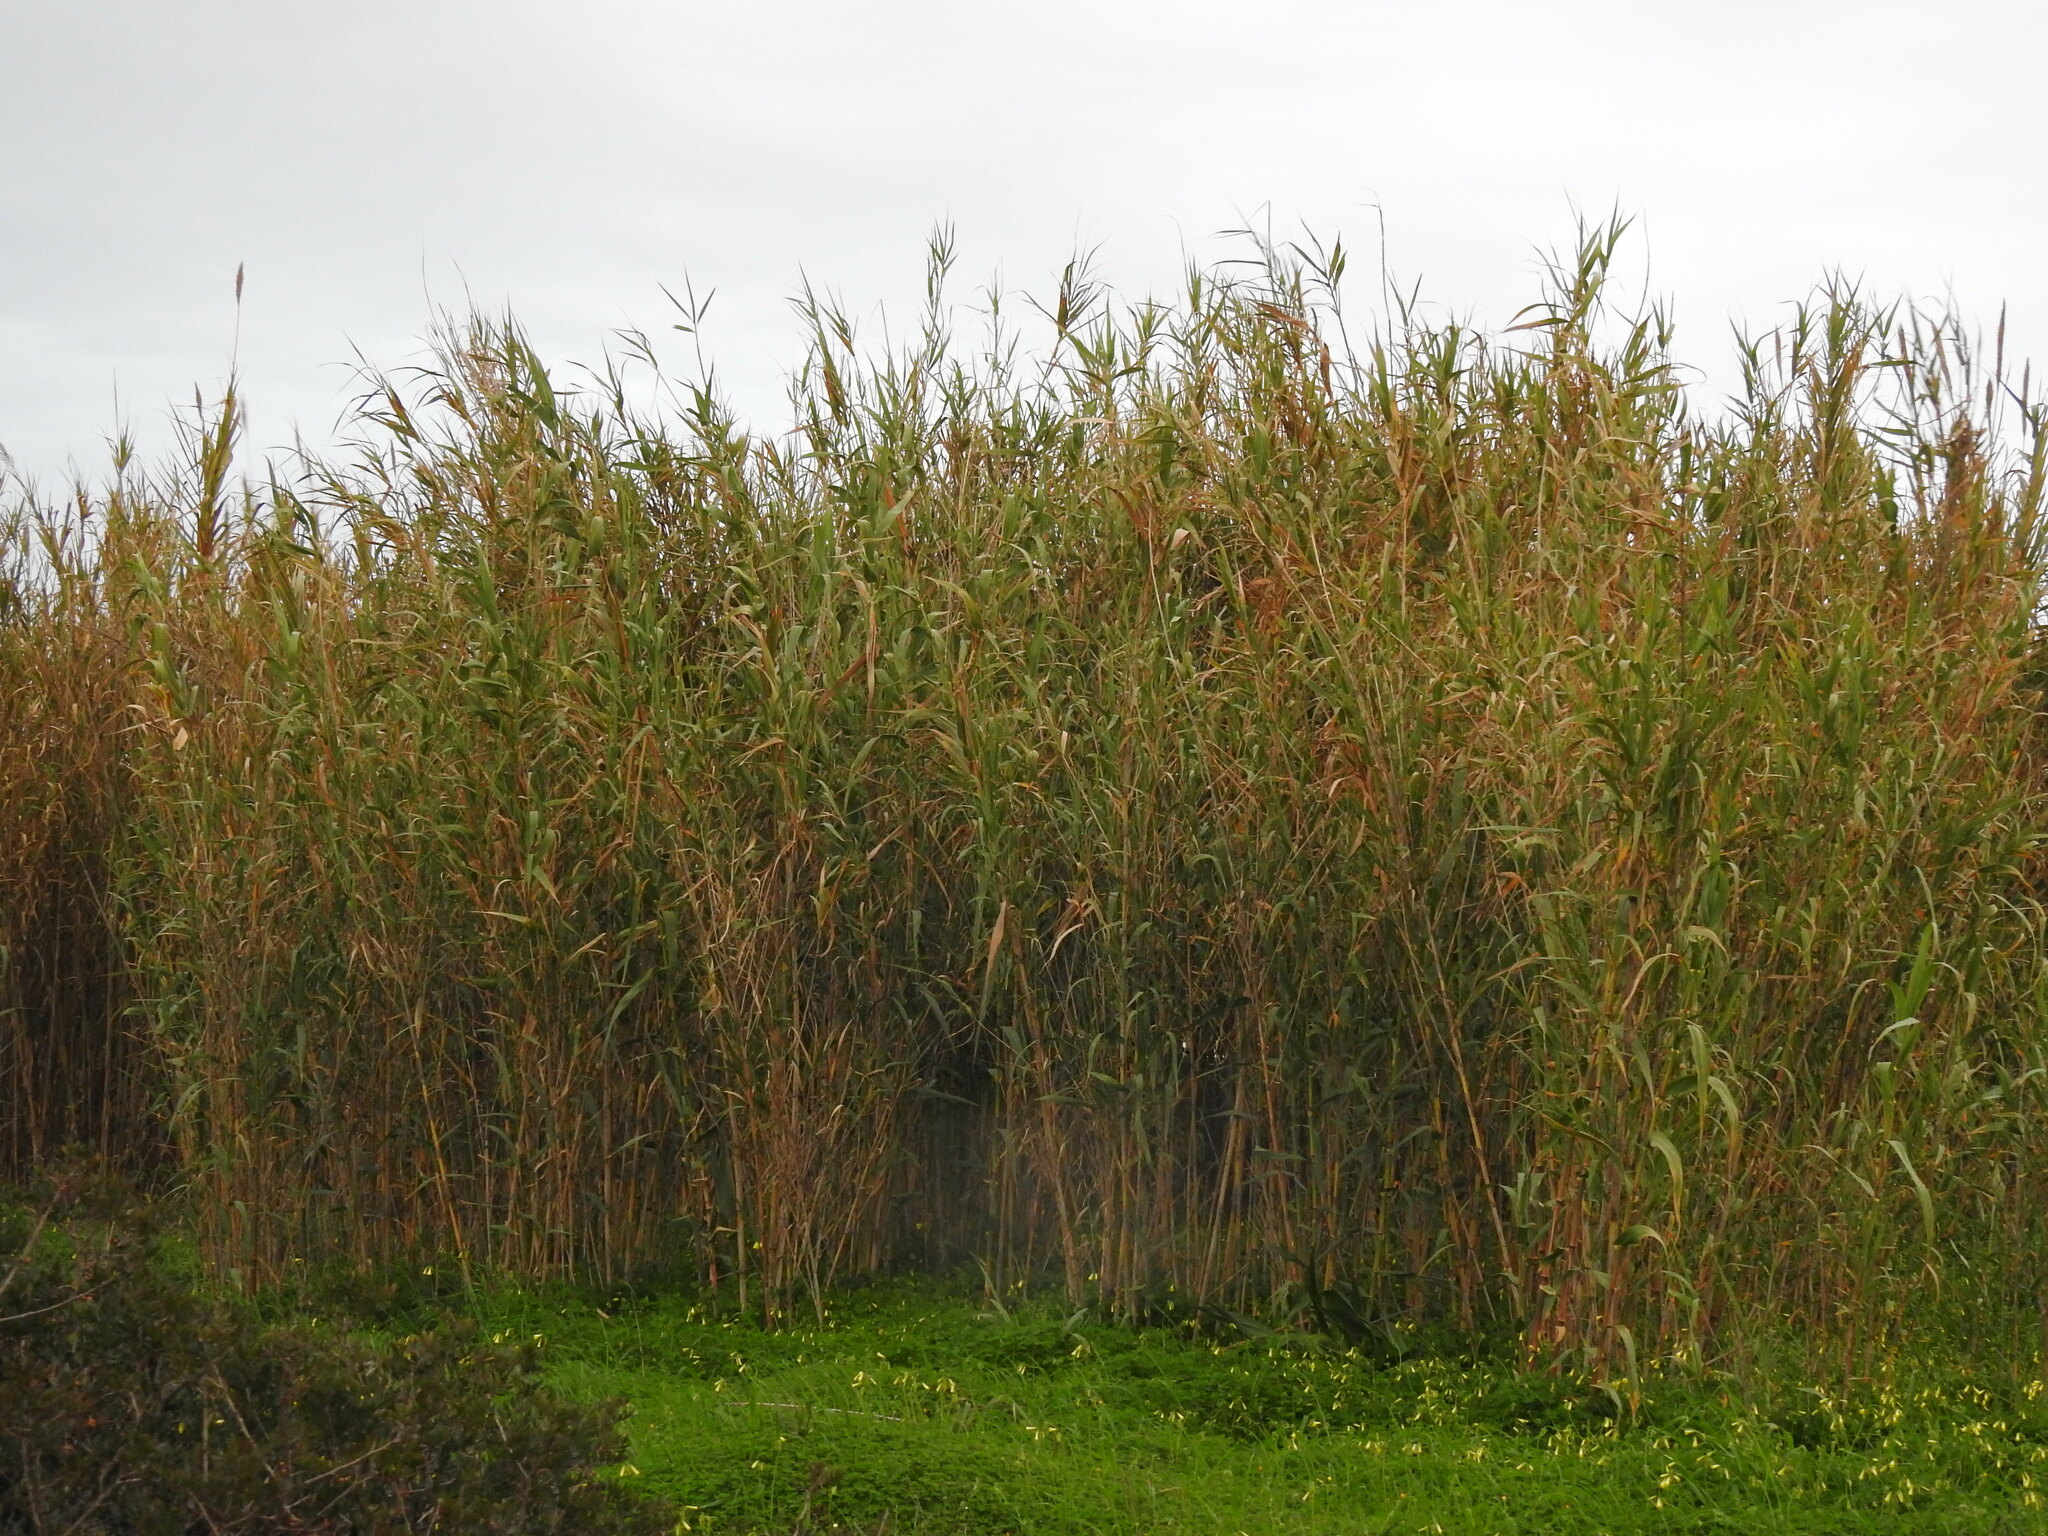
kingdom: Plantae
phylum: Tracheophyta
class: Liliopsida
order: Poales
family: Poaceae
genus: Arundo
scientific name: Arundo donax
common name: Giant reed
